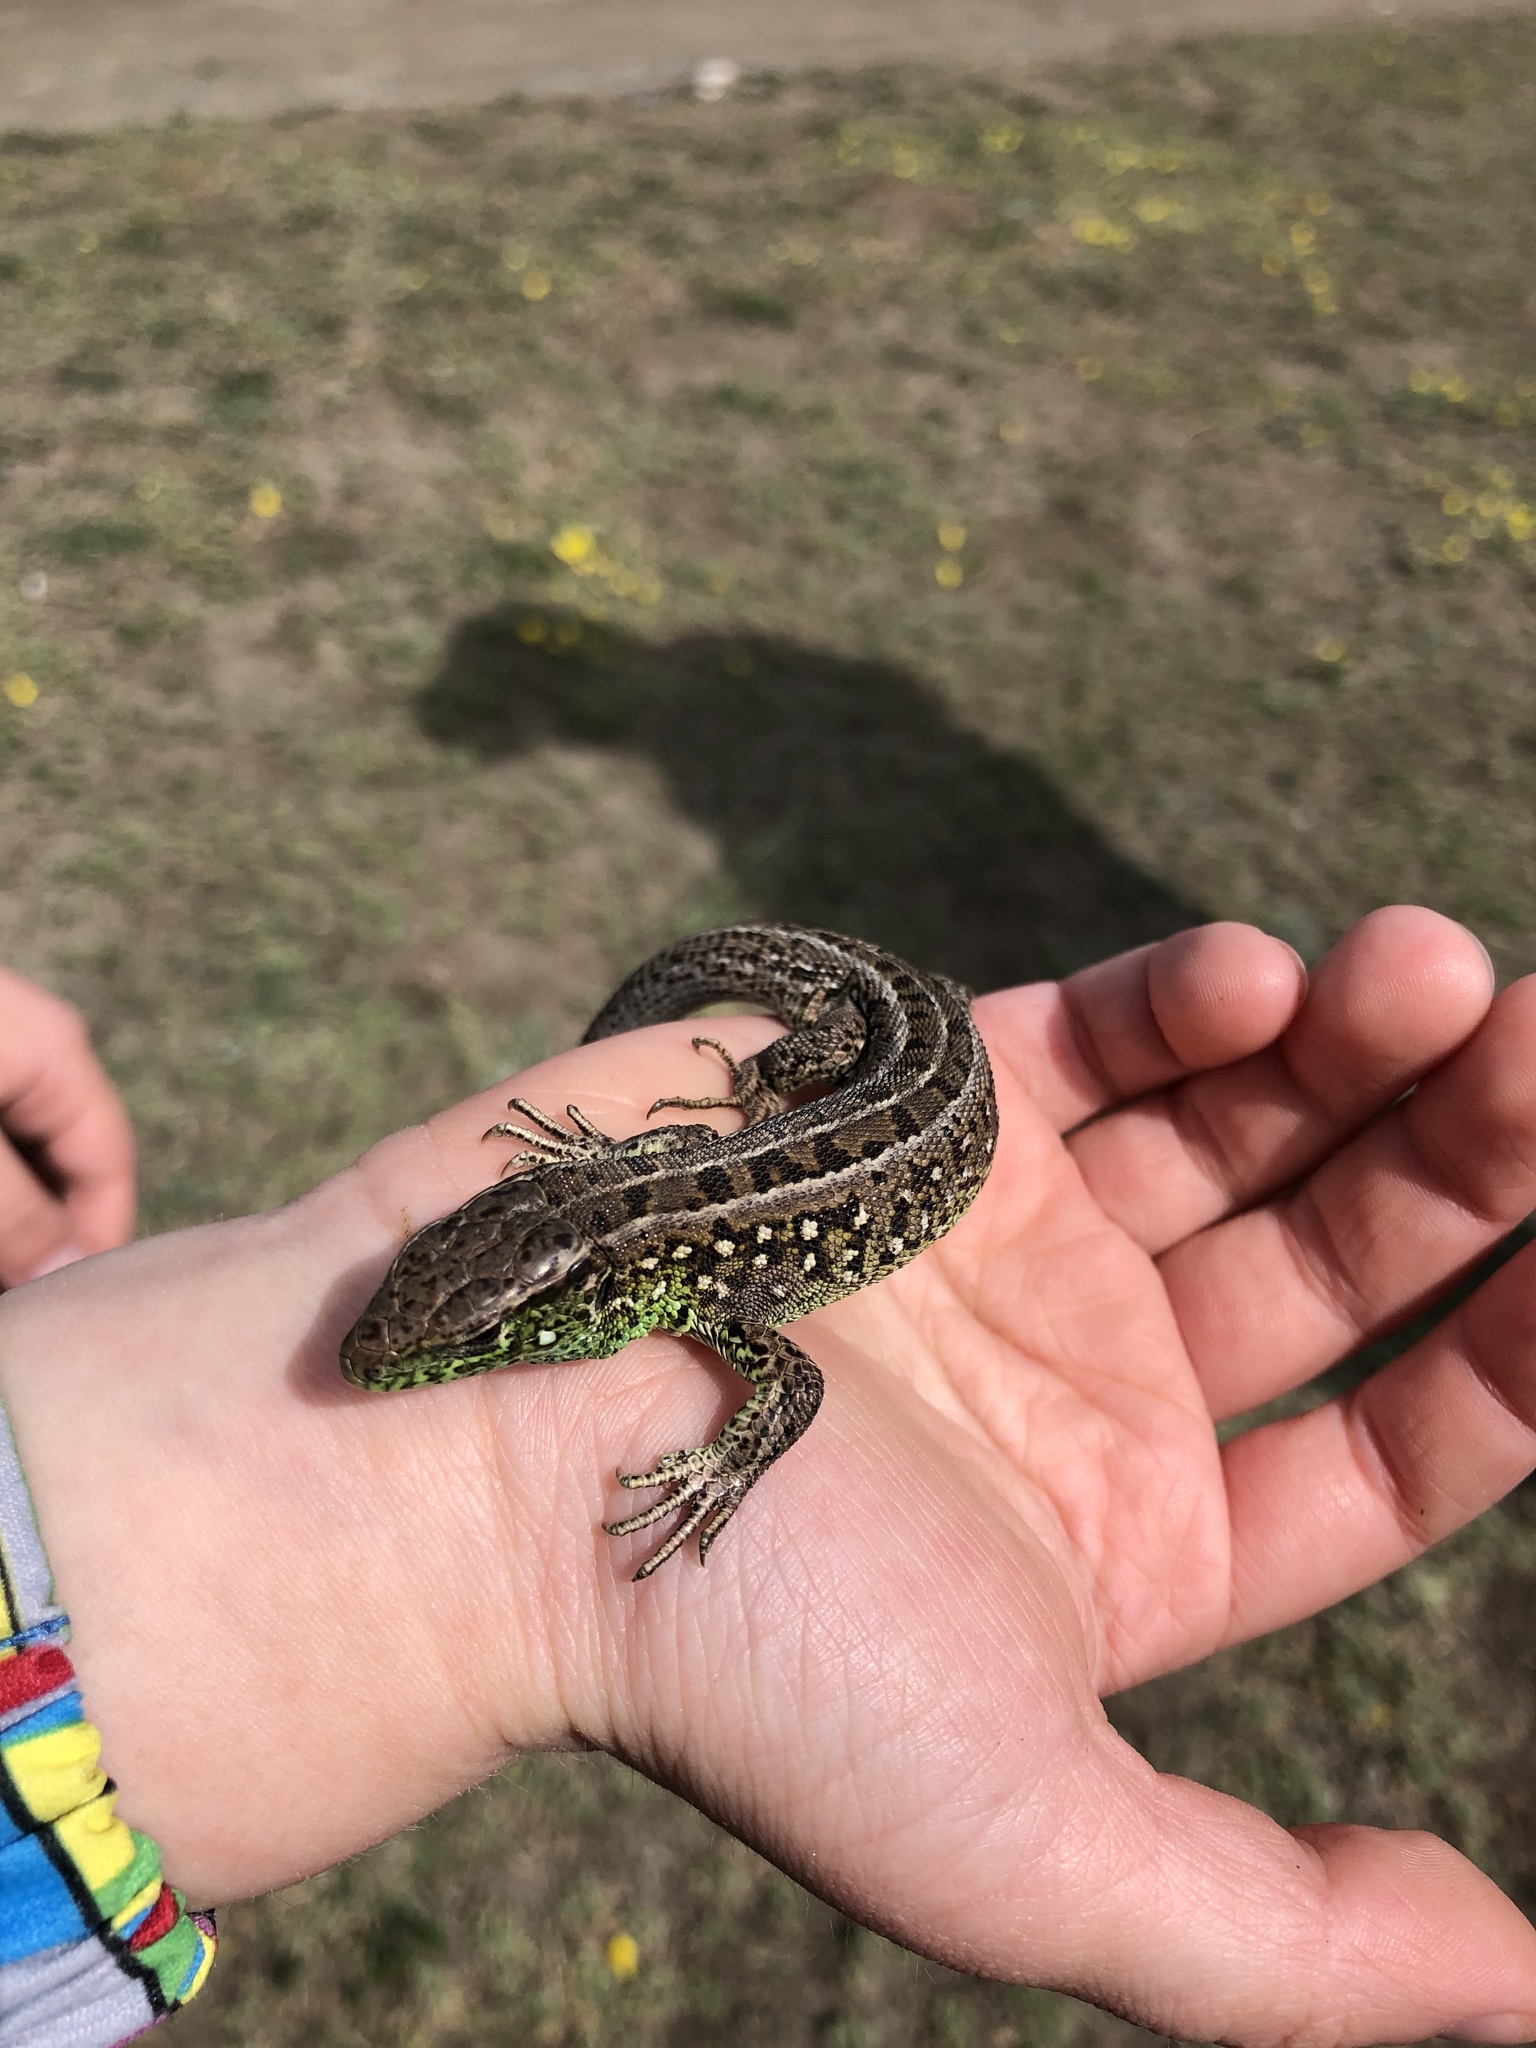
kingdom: Animalia
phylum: Chordata
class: Squamata
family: Lacertidae
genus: Lacerta
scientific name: Lacerta agilis
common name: Sand lizard
